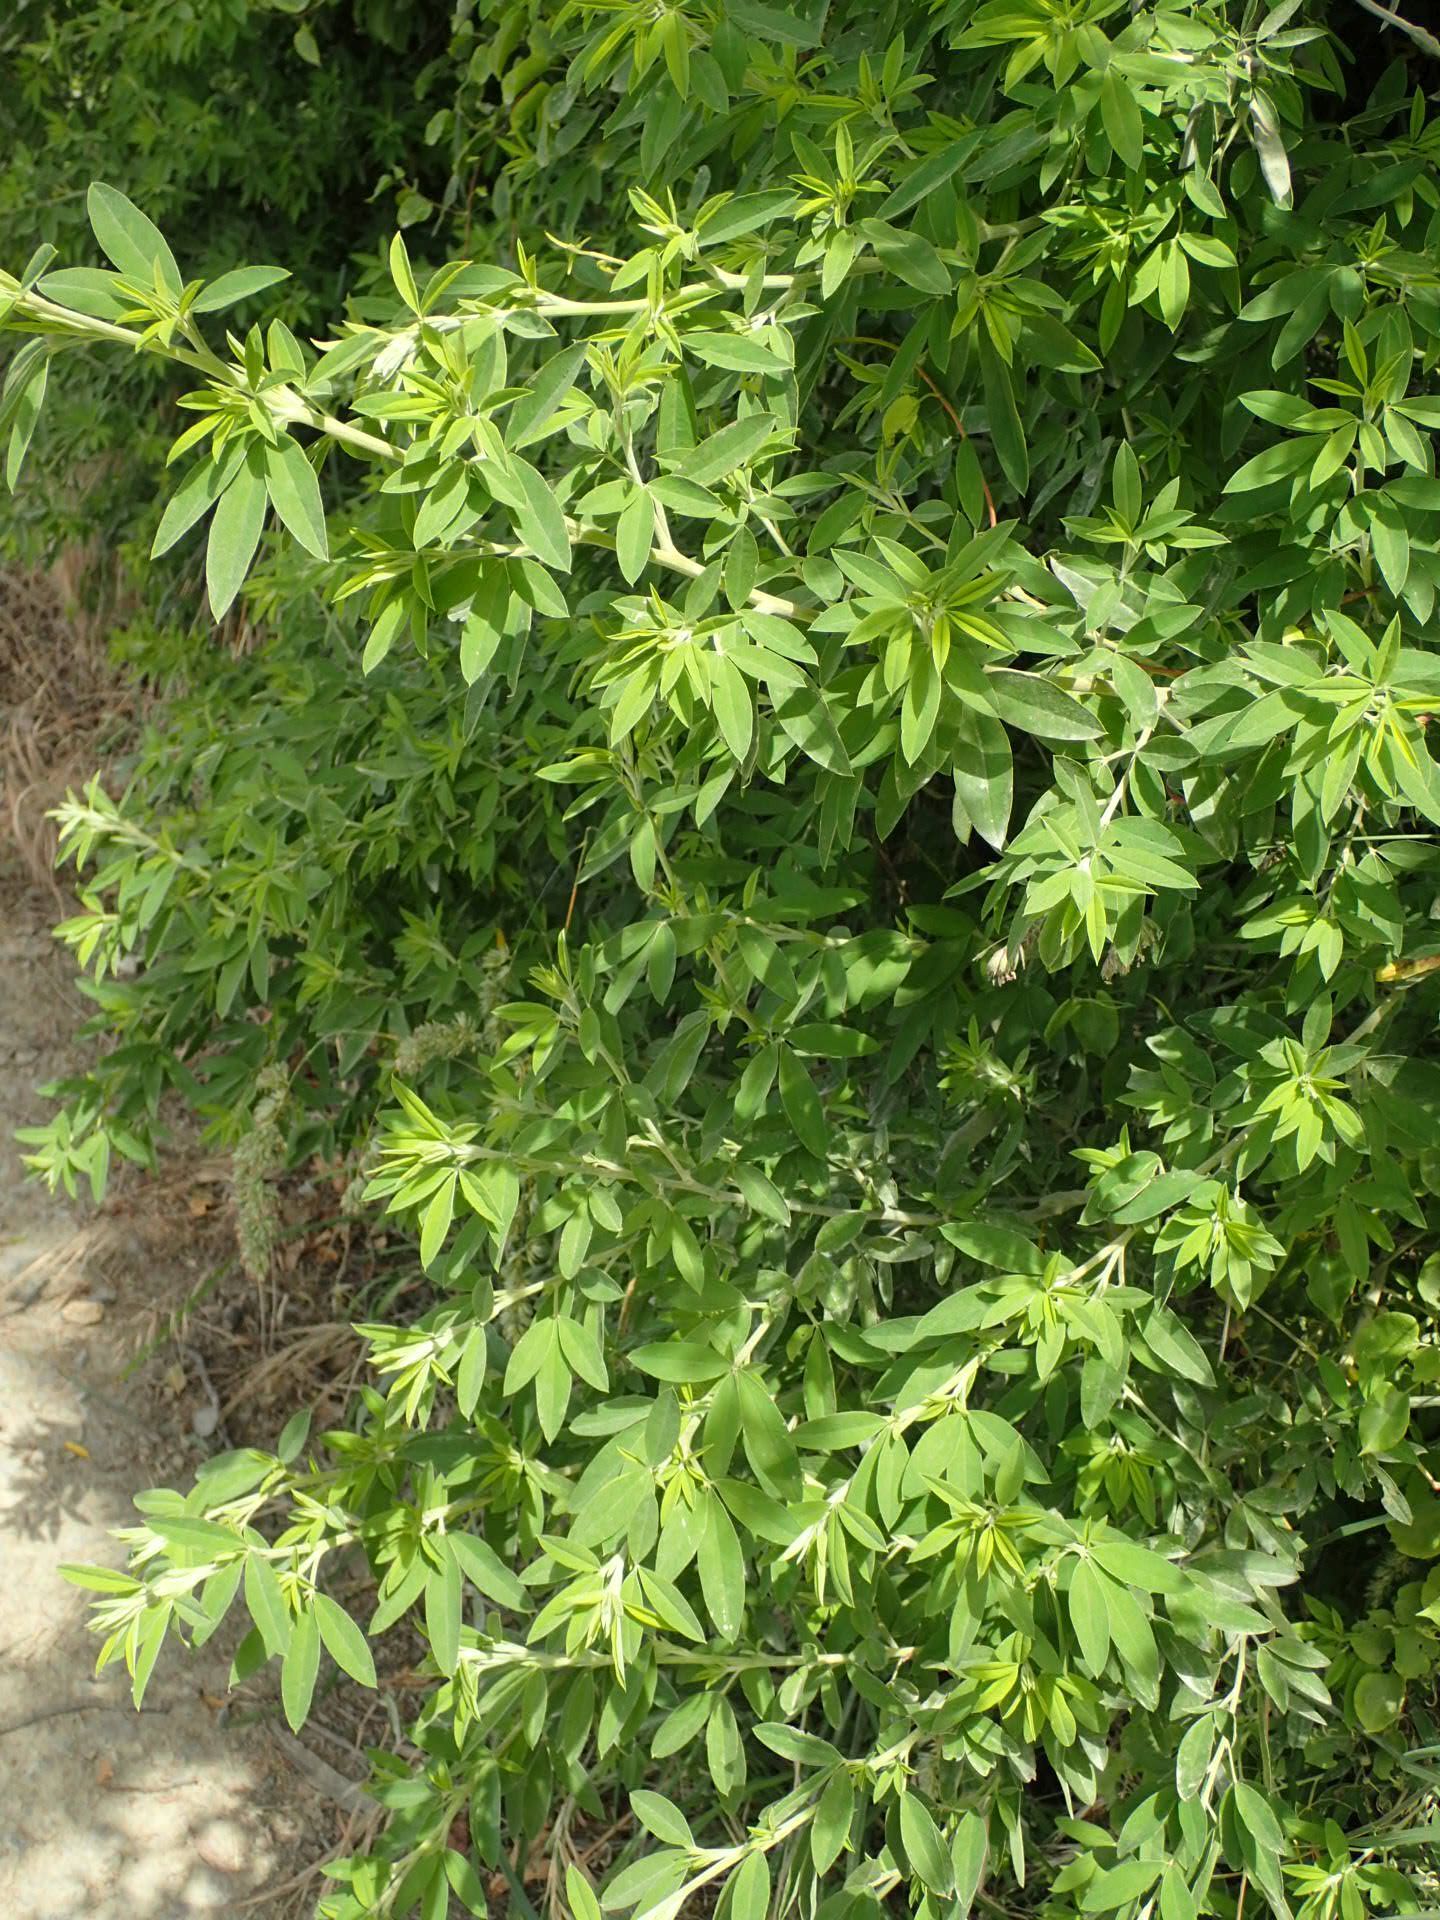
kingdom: Plantae
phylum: Tracheophyta
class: Magnoliopsida
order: Fabales
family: Fabaceae
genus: Chamaecytisus
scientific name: Chamaecytisus prolifer
